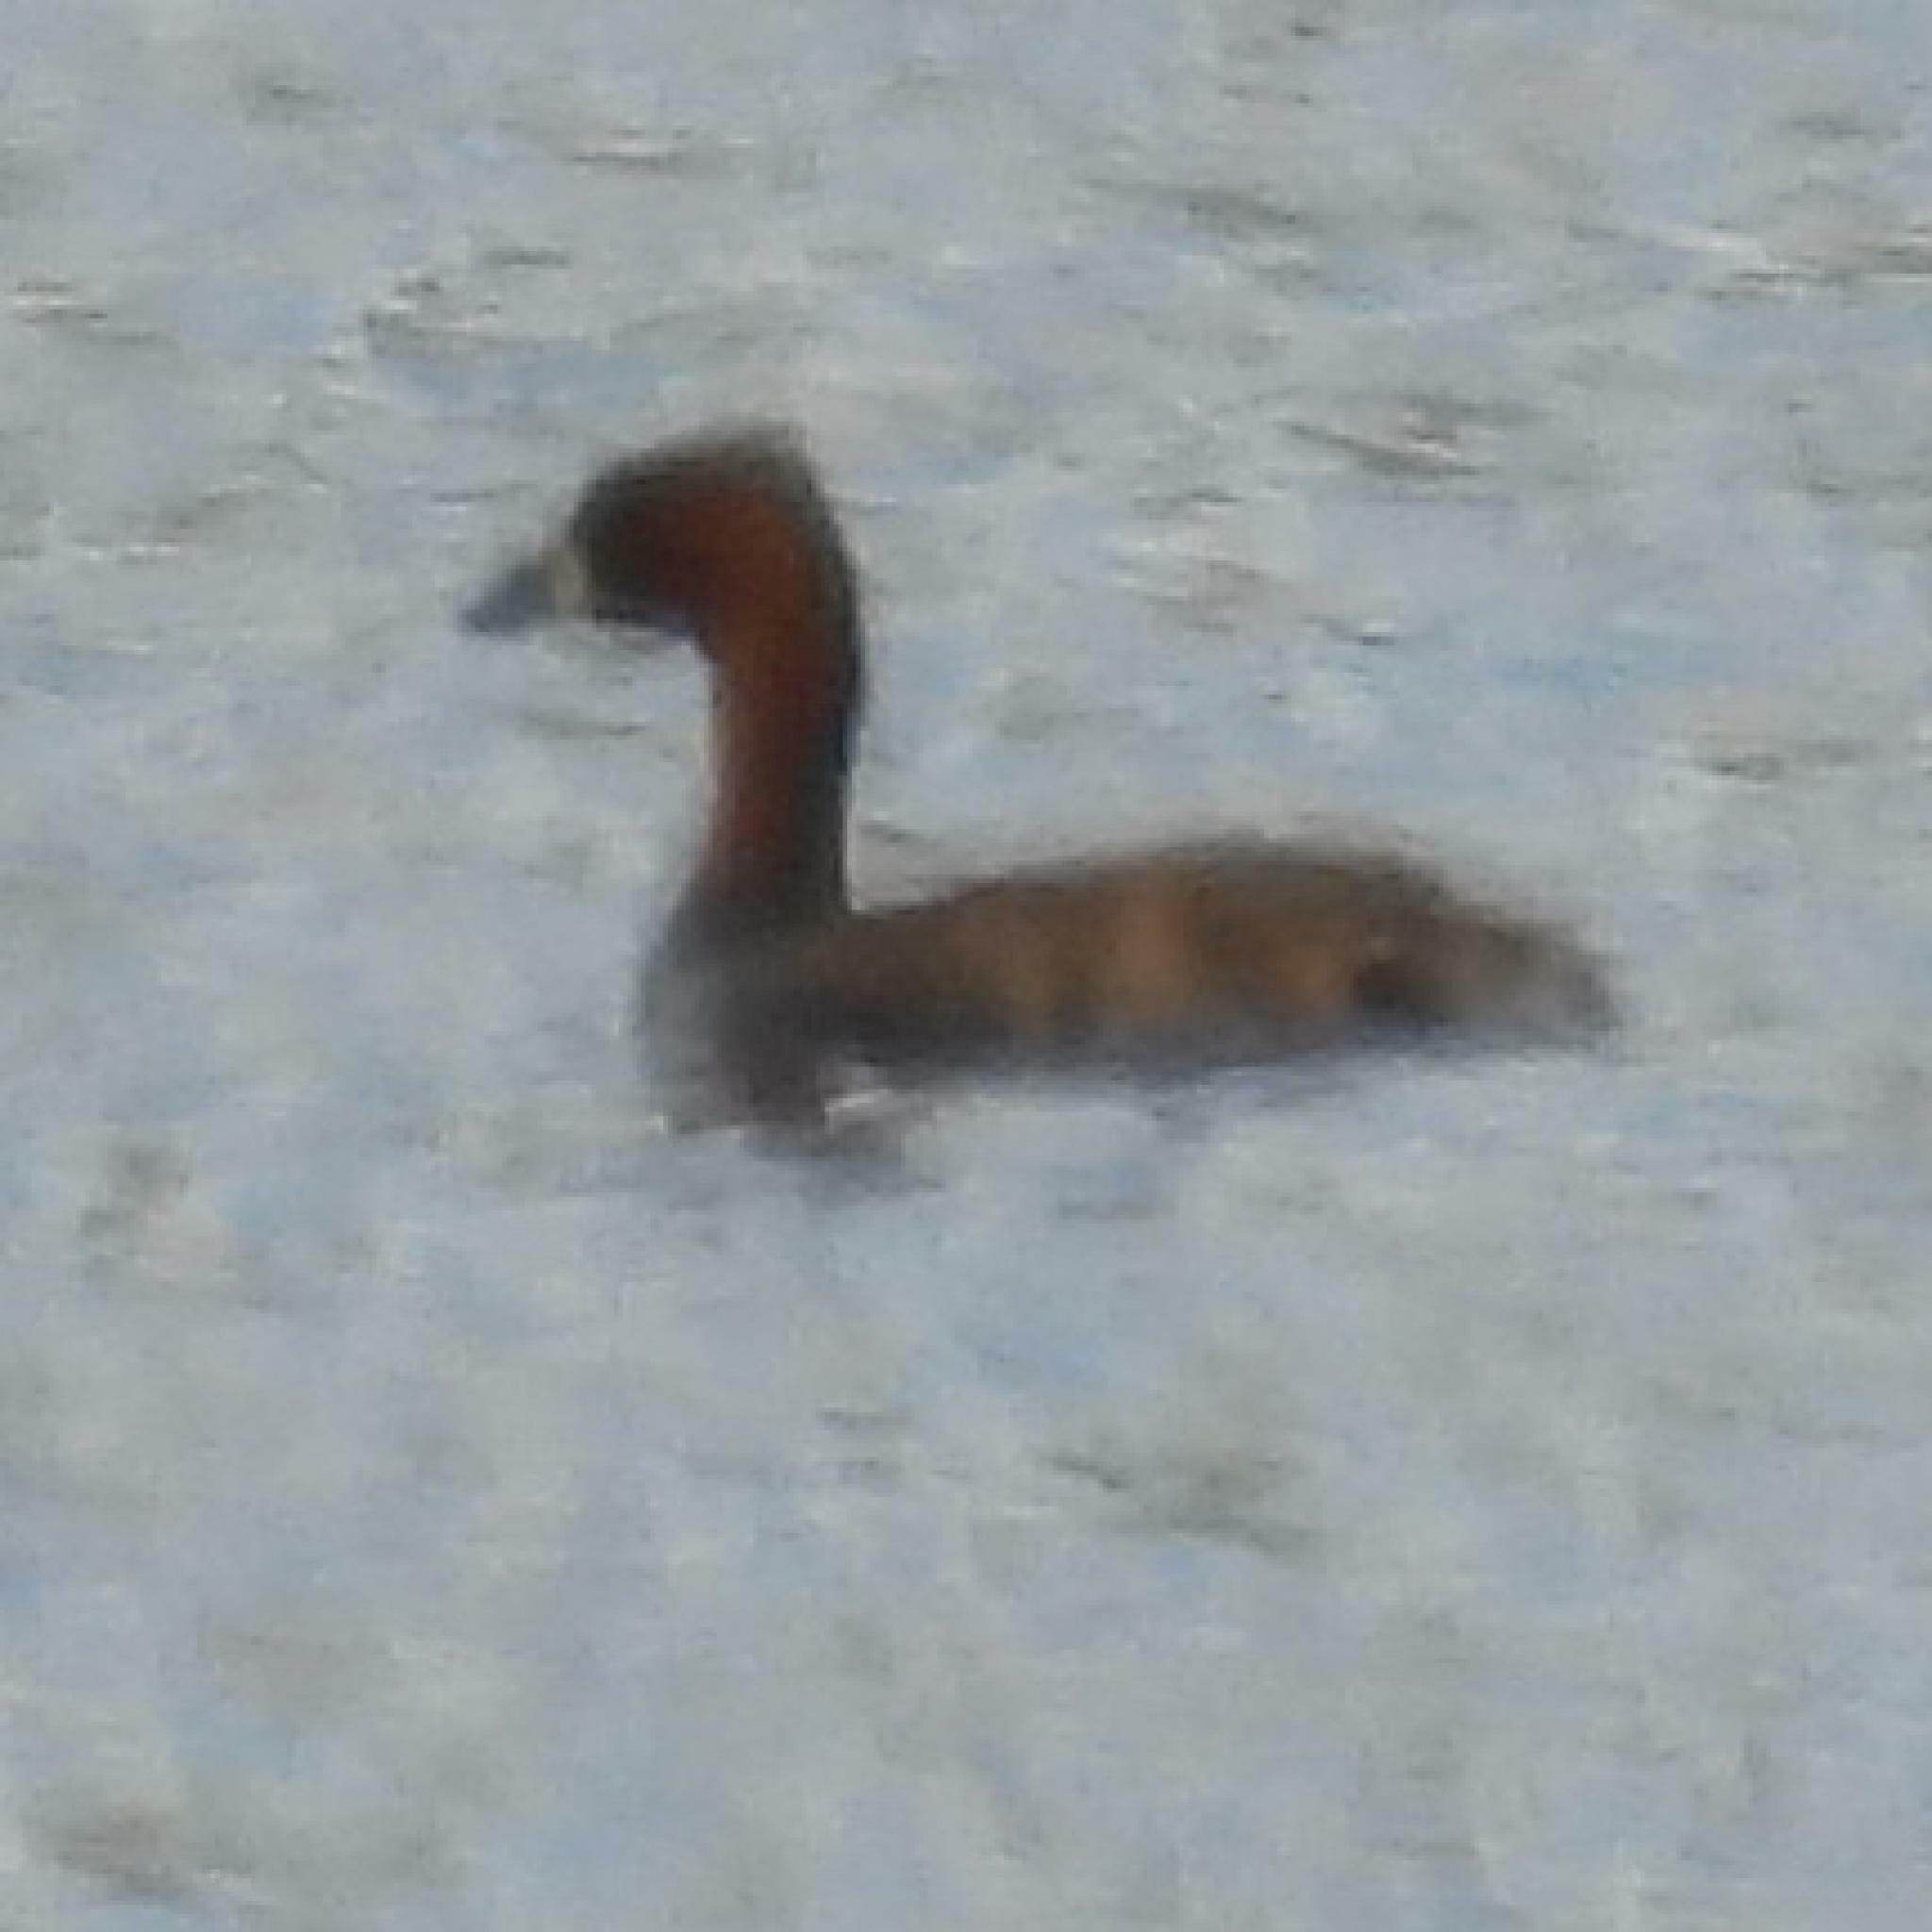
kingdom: Animalia
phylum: Chordata
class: Aves
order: Podicipediformes
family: Podicipedidae
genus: Tachybaptus
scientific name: Tachybaptus ruficollis
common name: Little grebe
